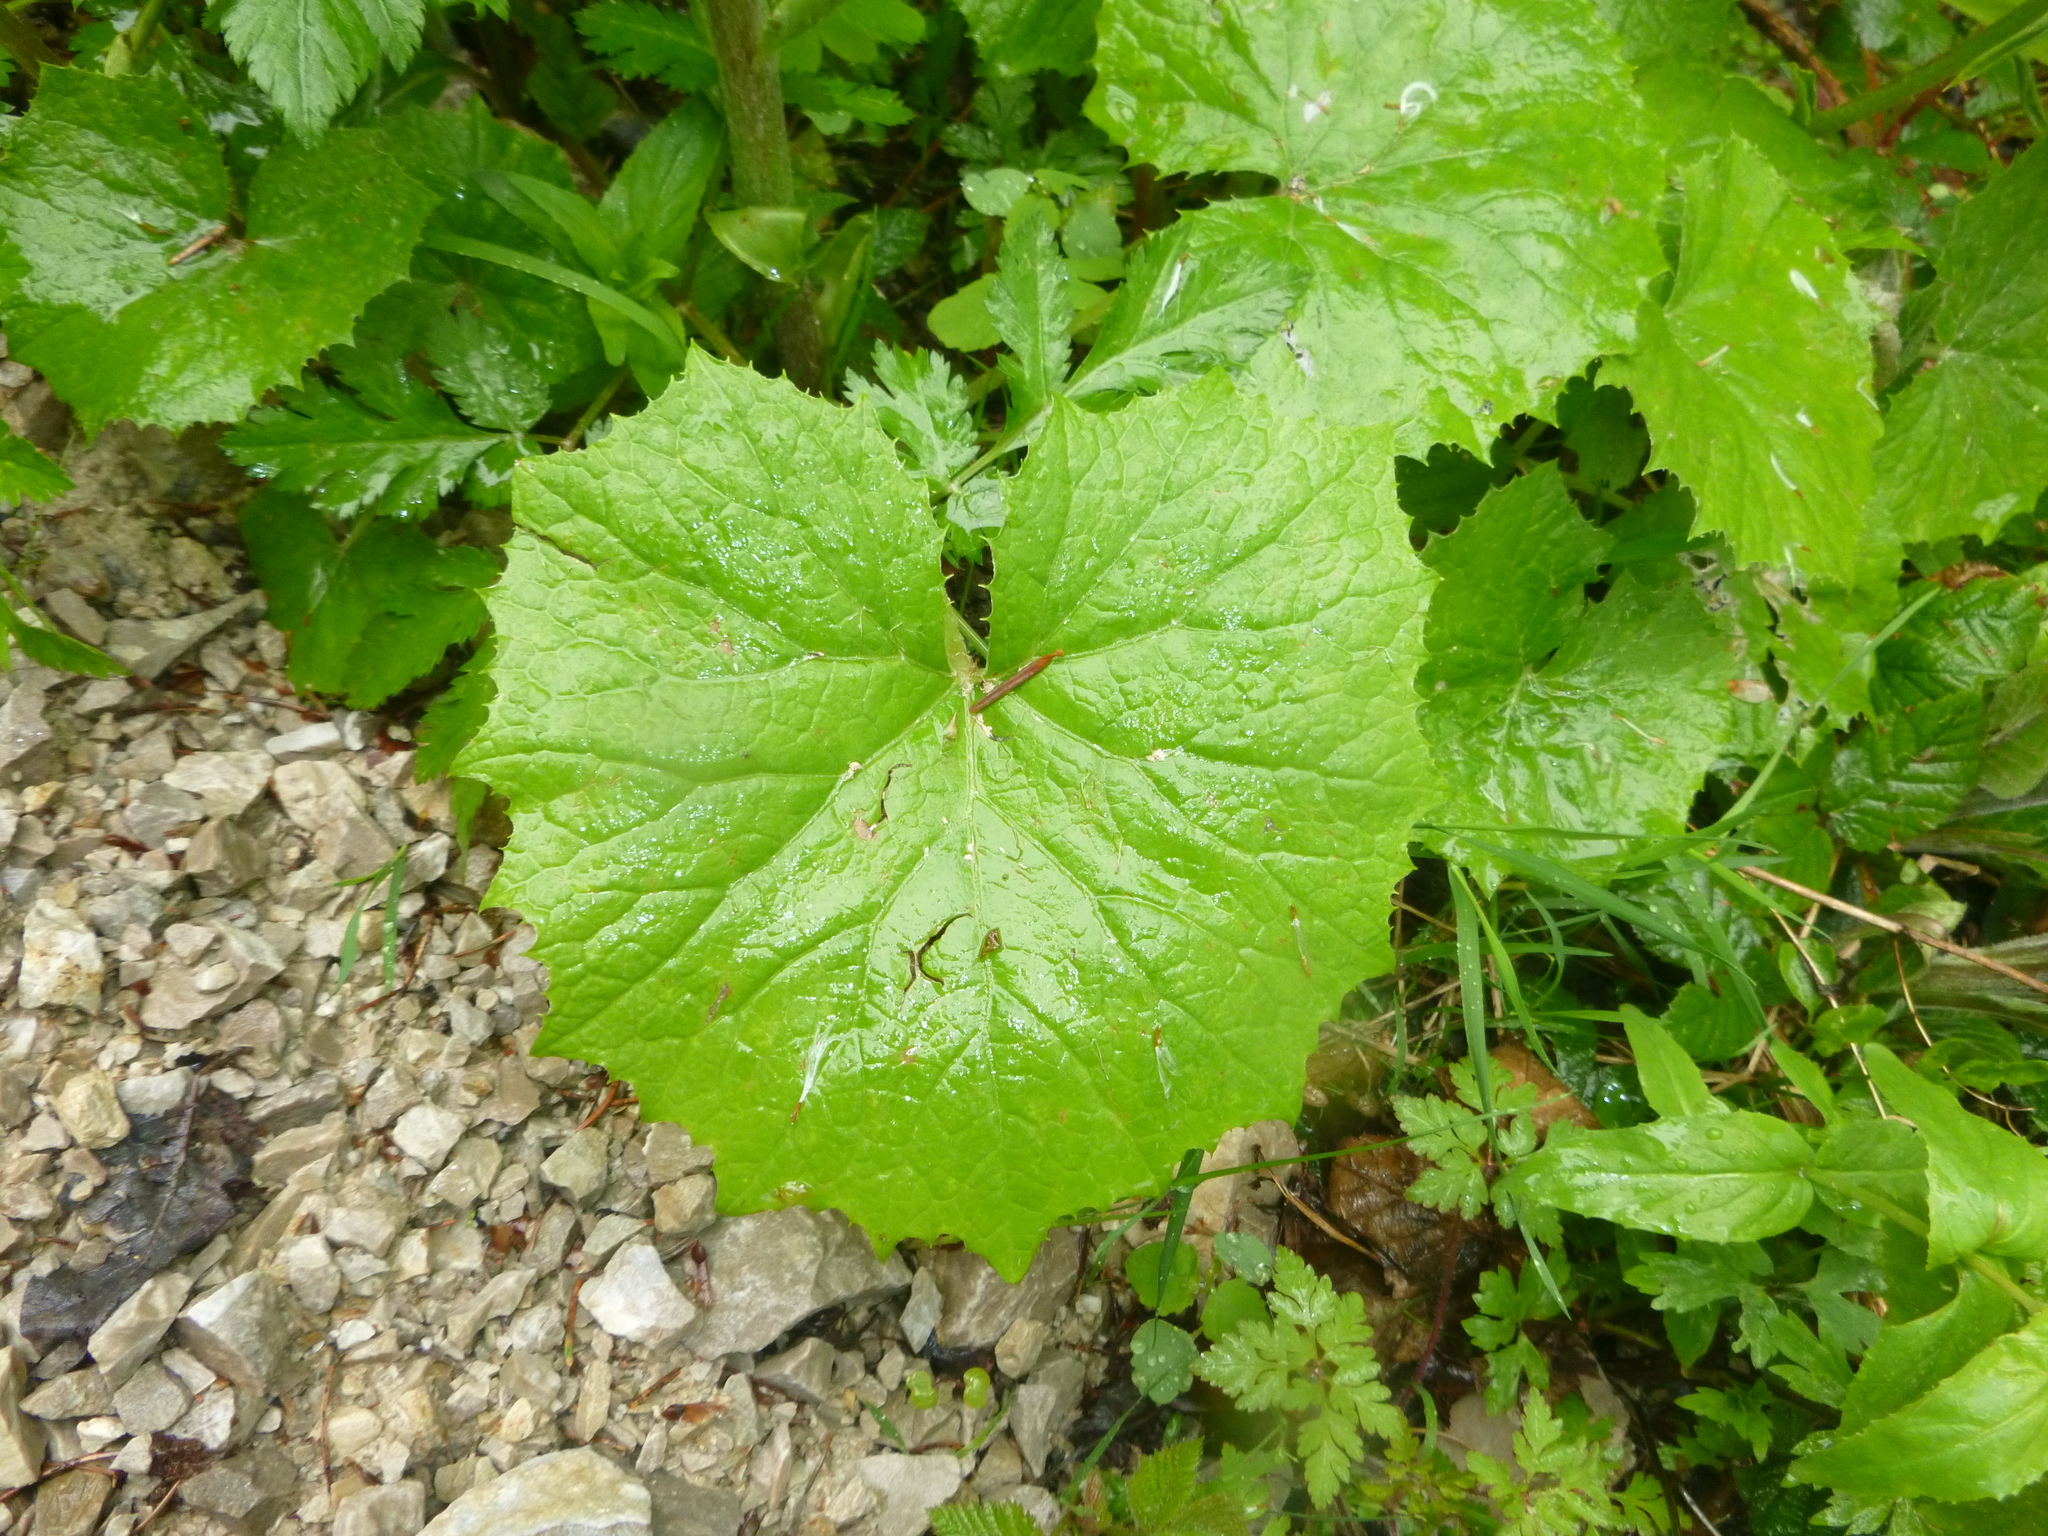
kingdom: Plantae
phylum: Tracheophyta
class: Magnoliopsida
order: Asterales
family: Asteraceae
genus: Petasites
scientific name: Petasites albus
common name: White butterbur
